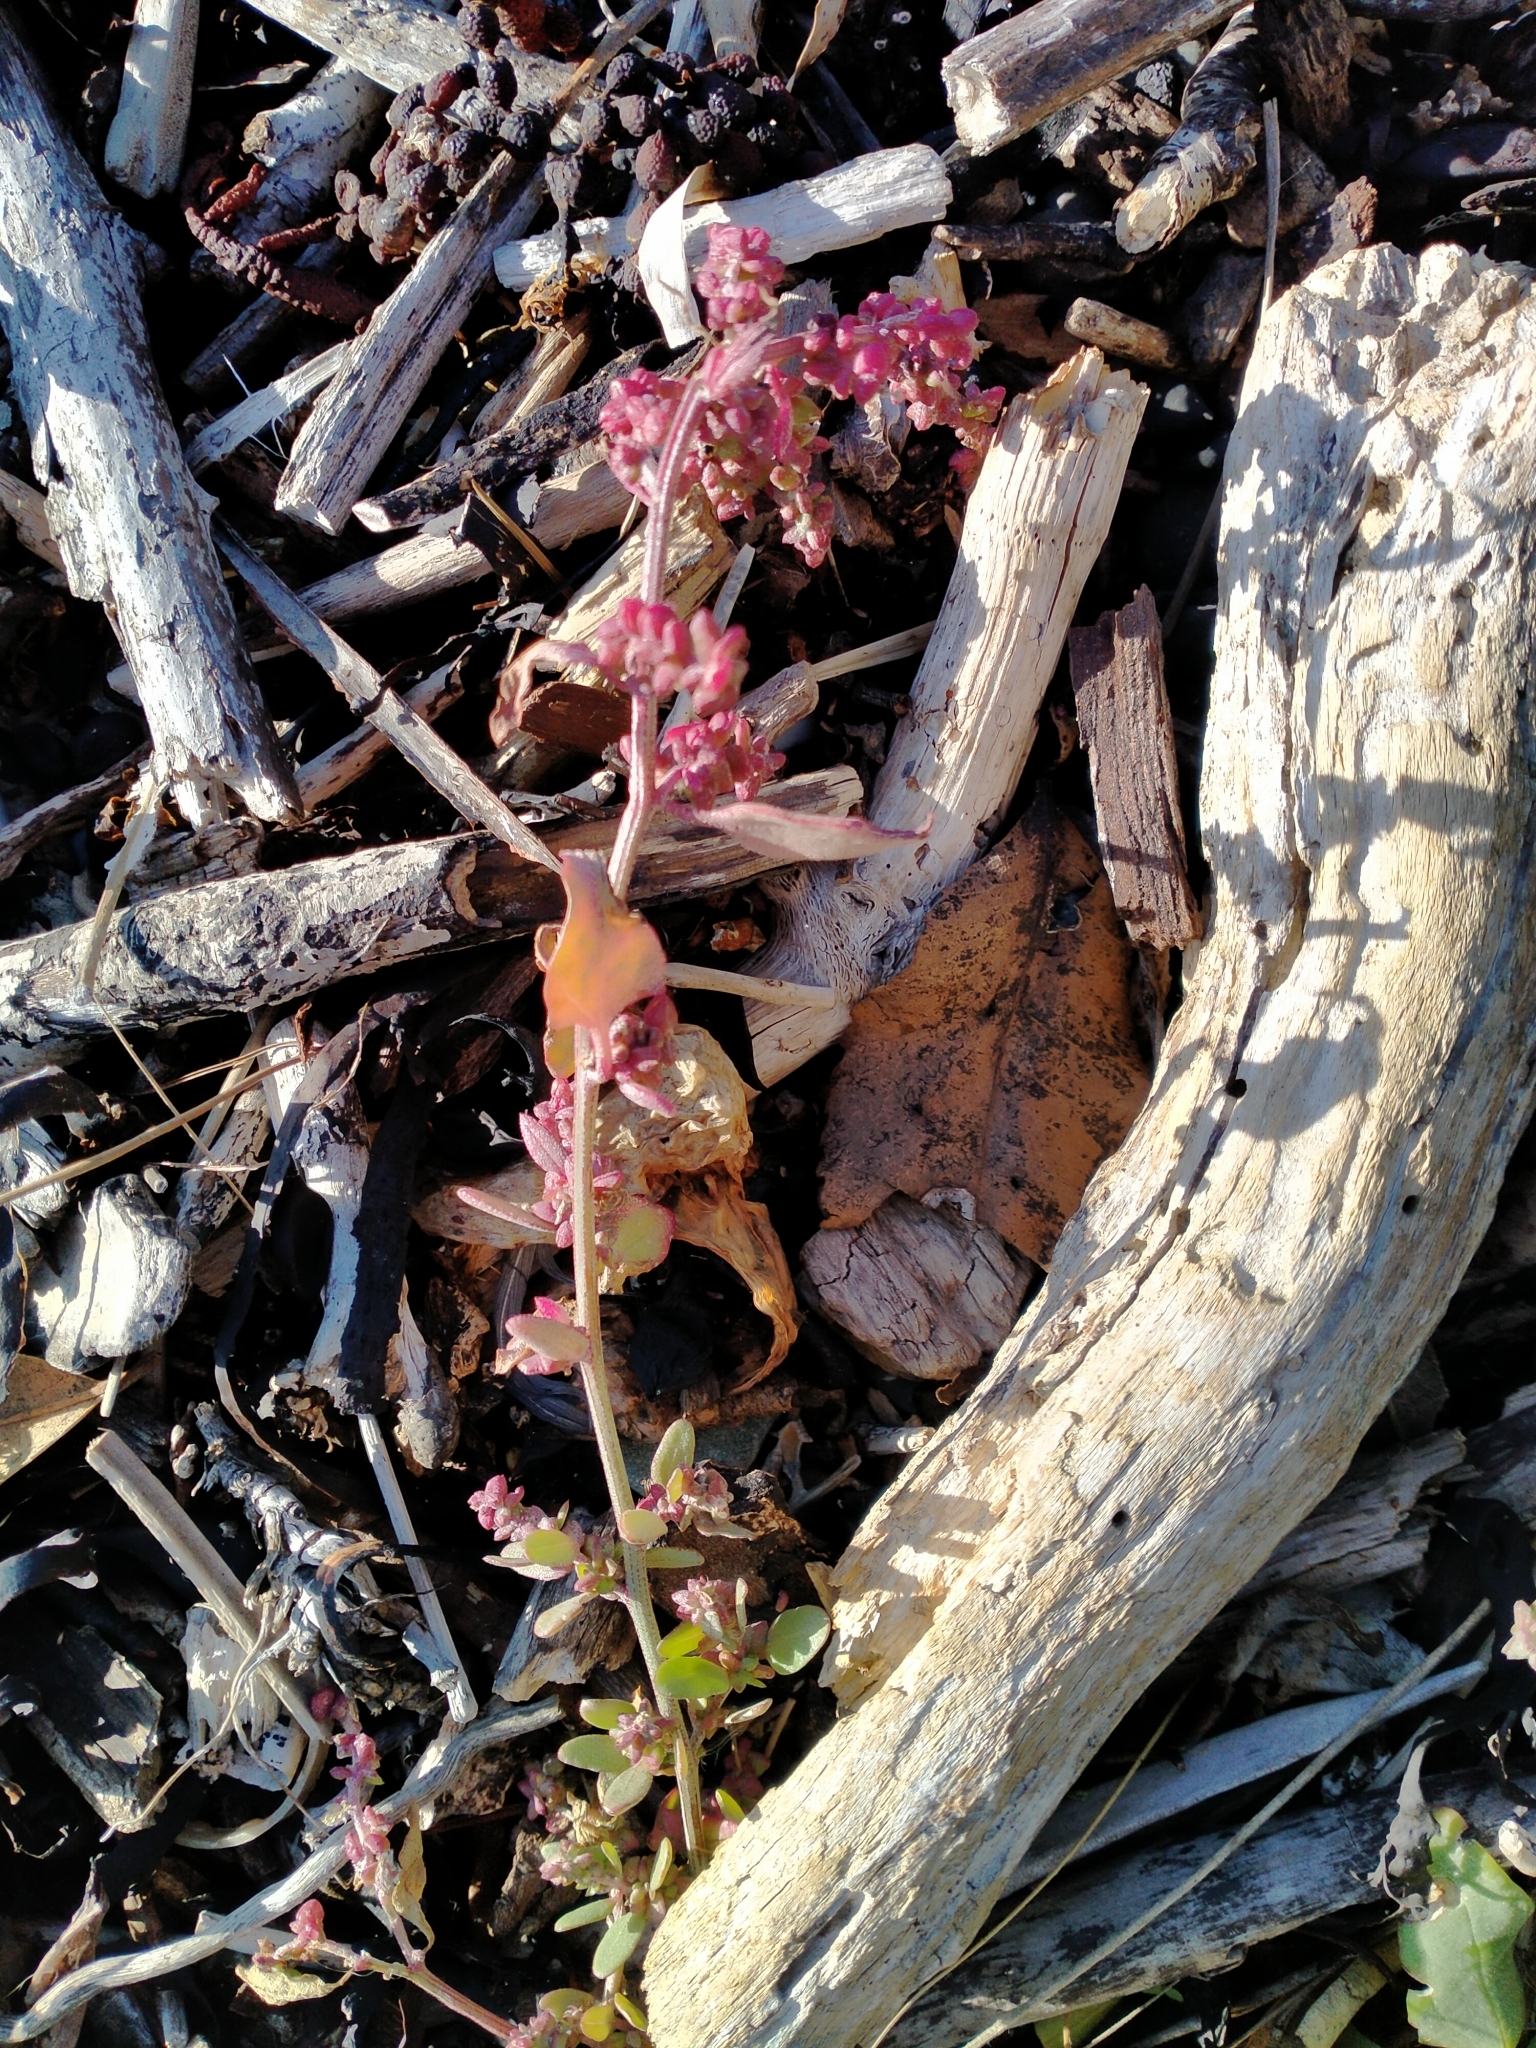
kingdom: Plantae
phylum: Tracheophyta
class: Magnoliopsida
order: Caryophyllales
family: Amaranthaceae
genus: Atriplex
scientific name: Atriplex prostrata
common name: Spear-leaved orache
